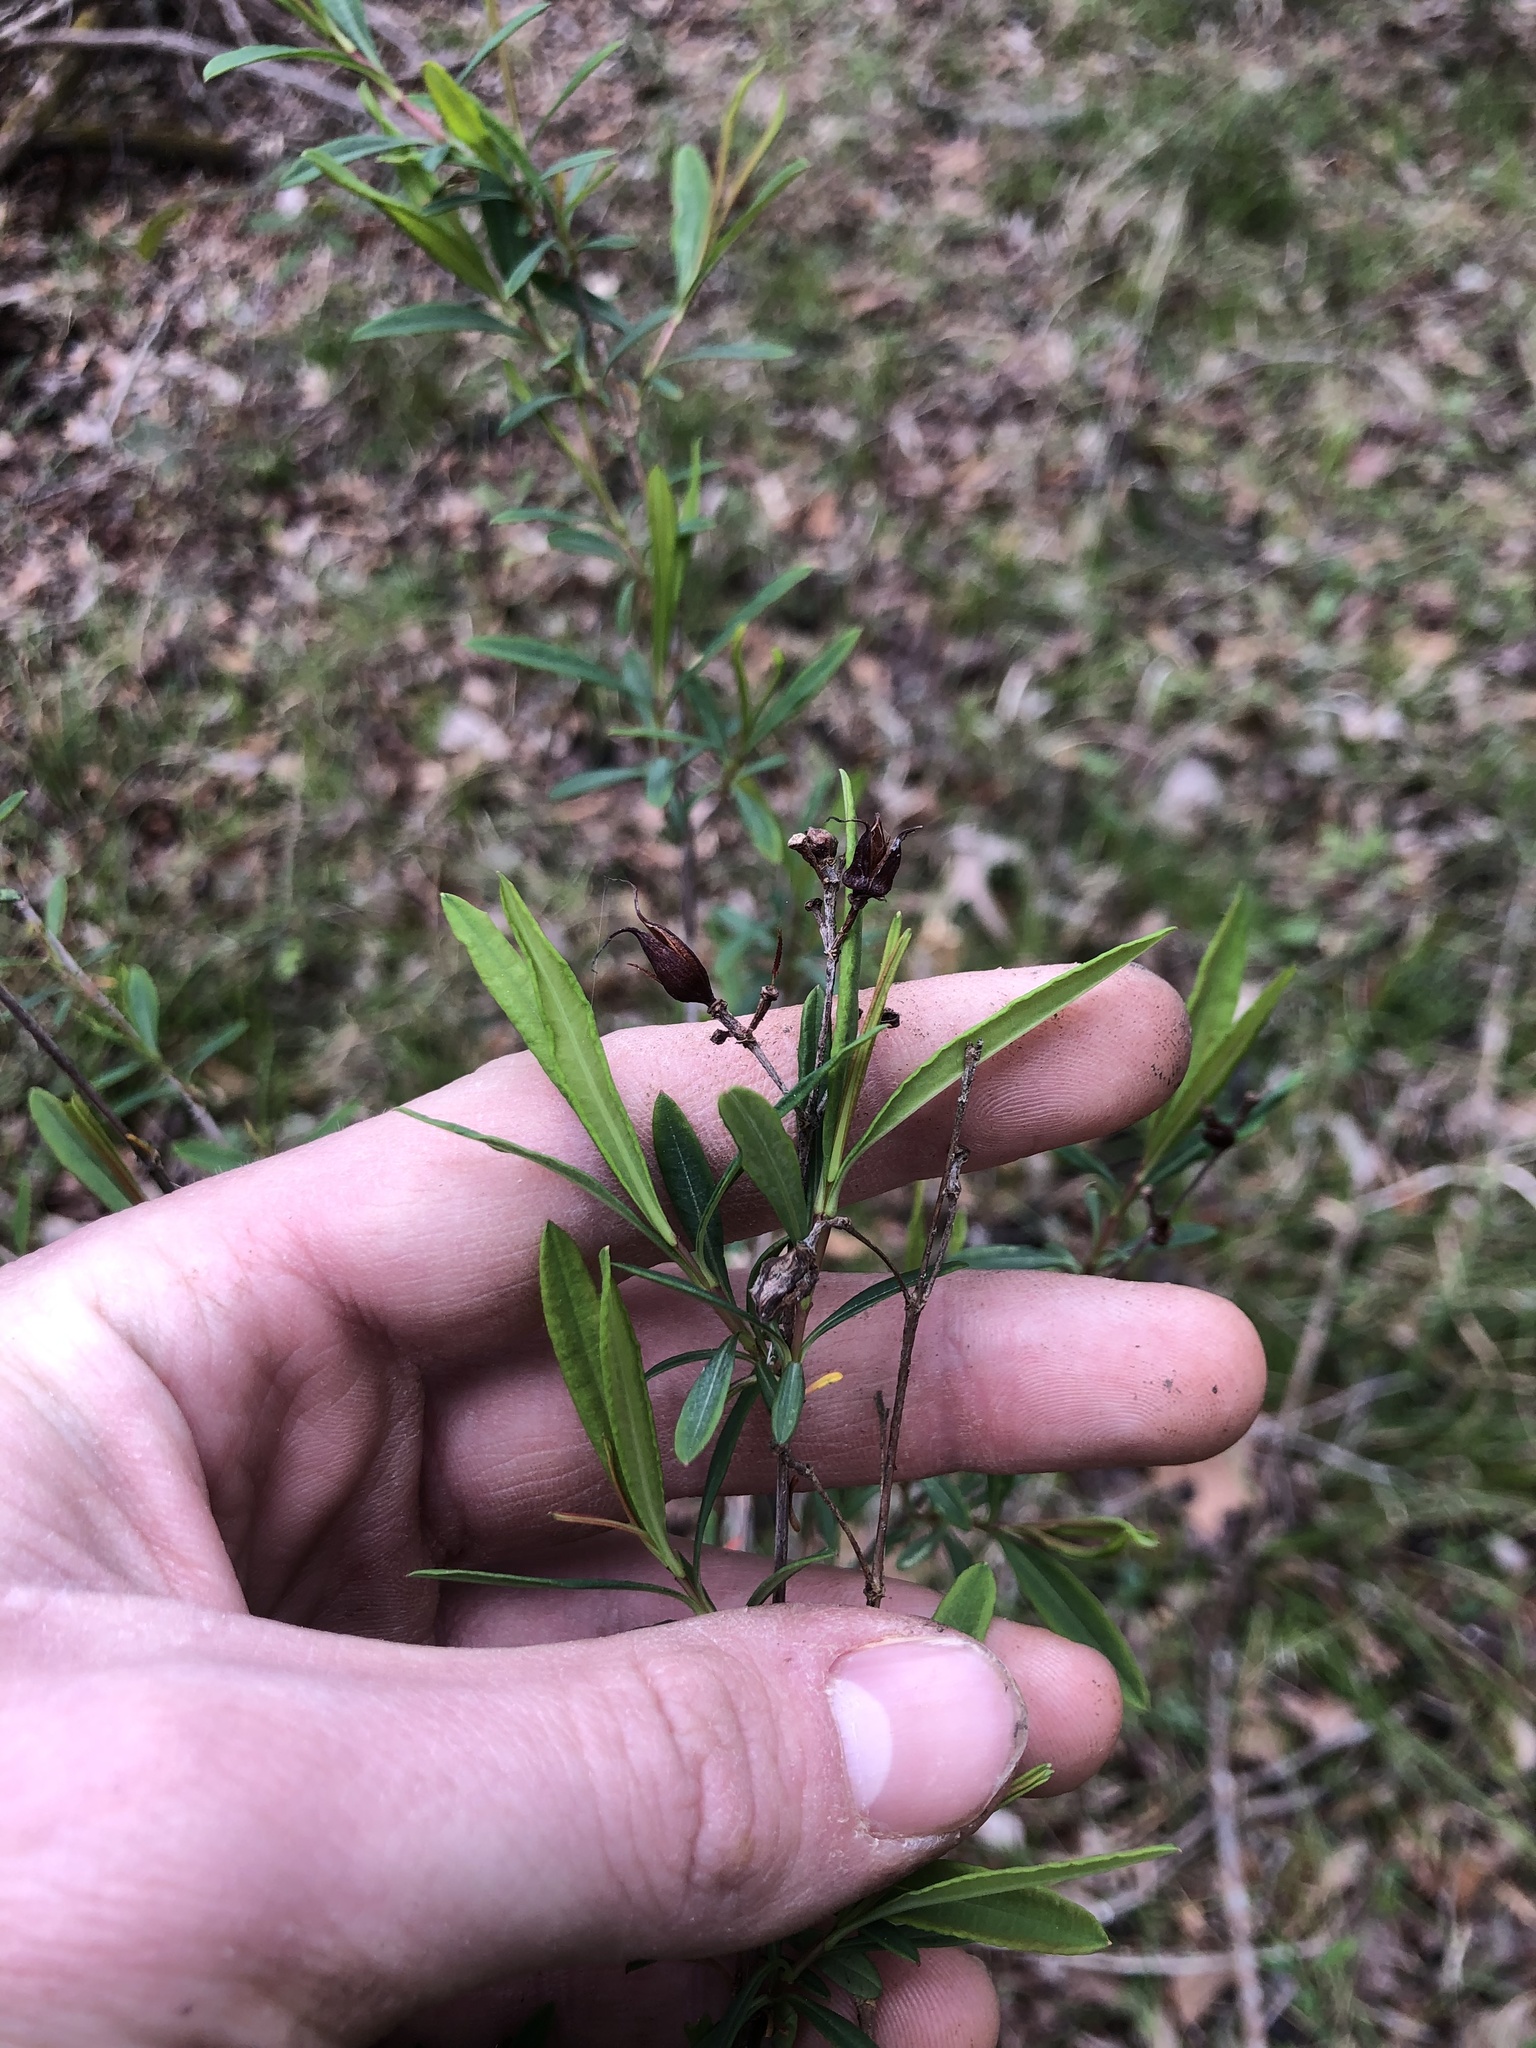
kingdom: Plantae
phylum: Tracheophyta
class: Magnoliopsida
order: Malpighiales
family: Hypericaceae
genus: Hypericum
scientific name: Hypericum frondosum
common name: Golden st. john's-wort
